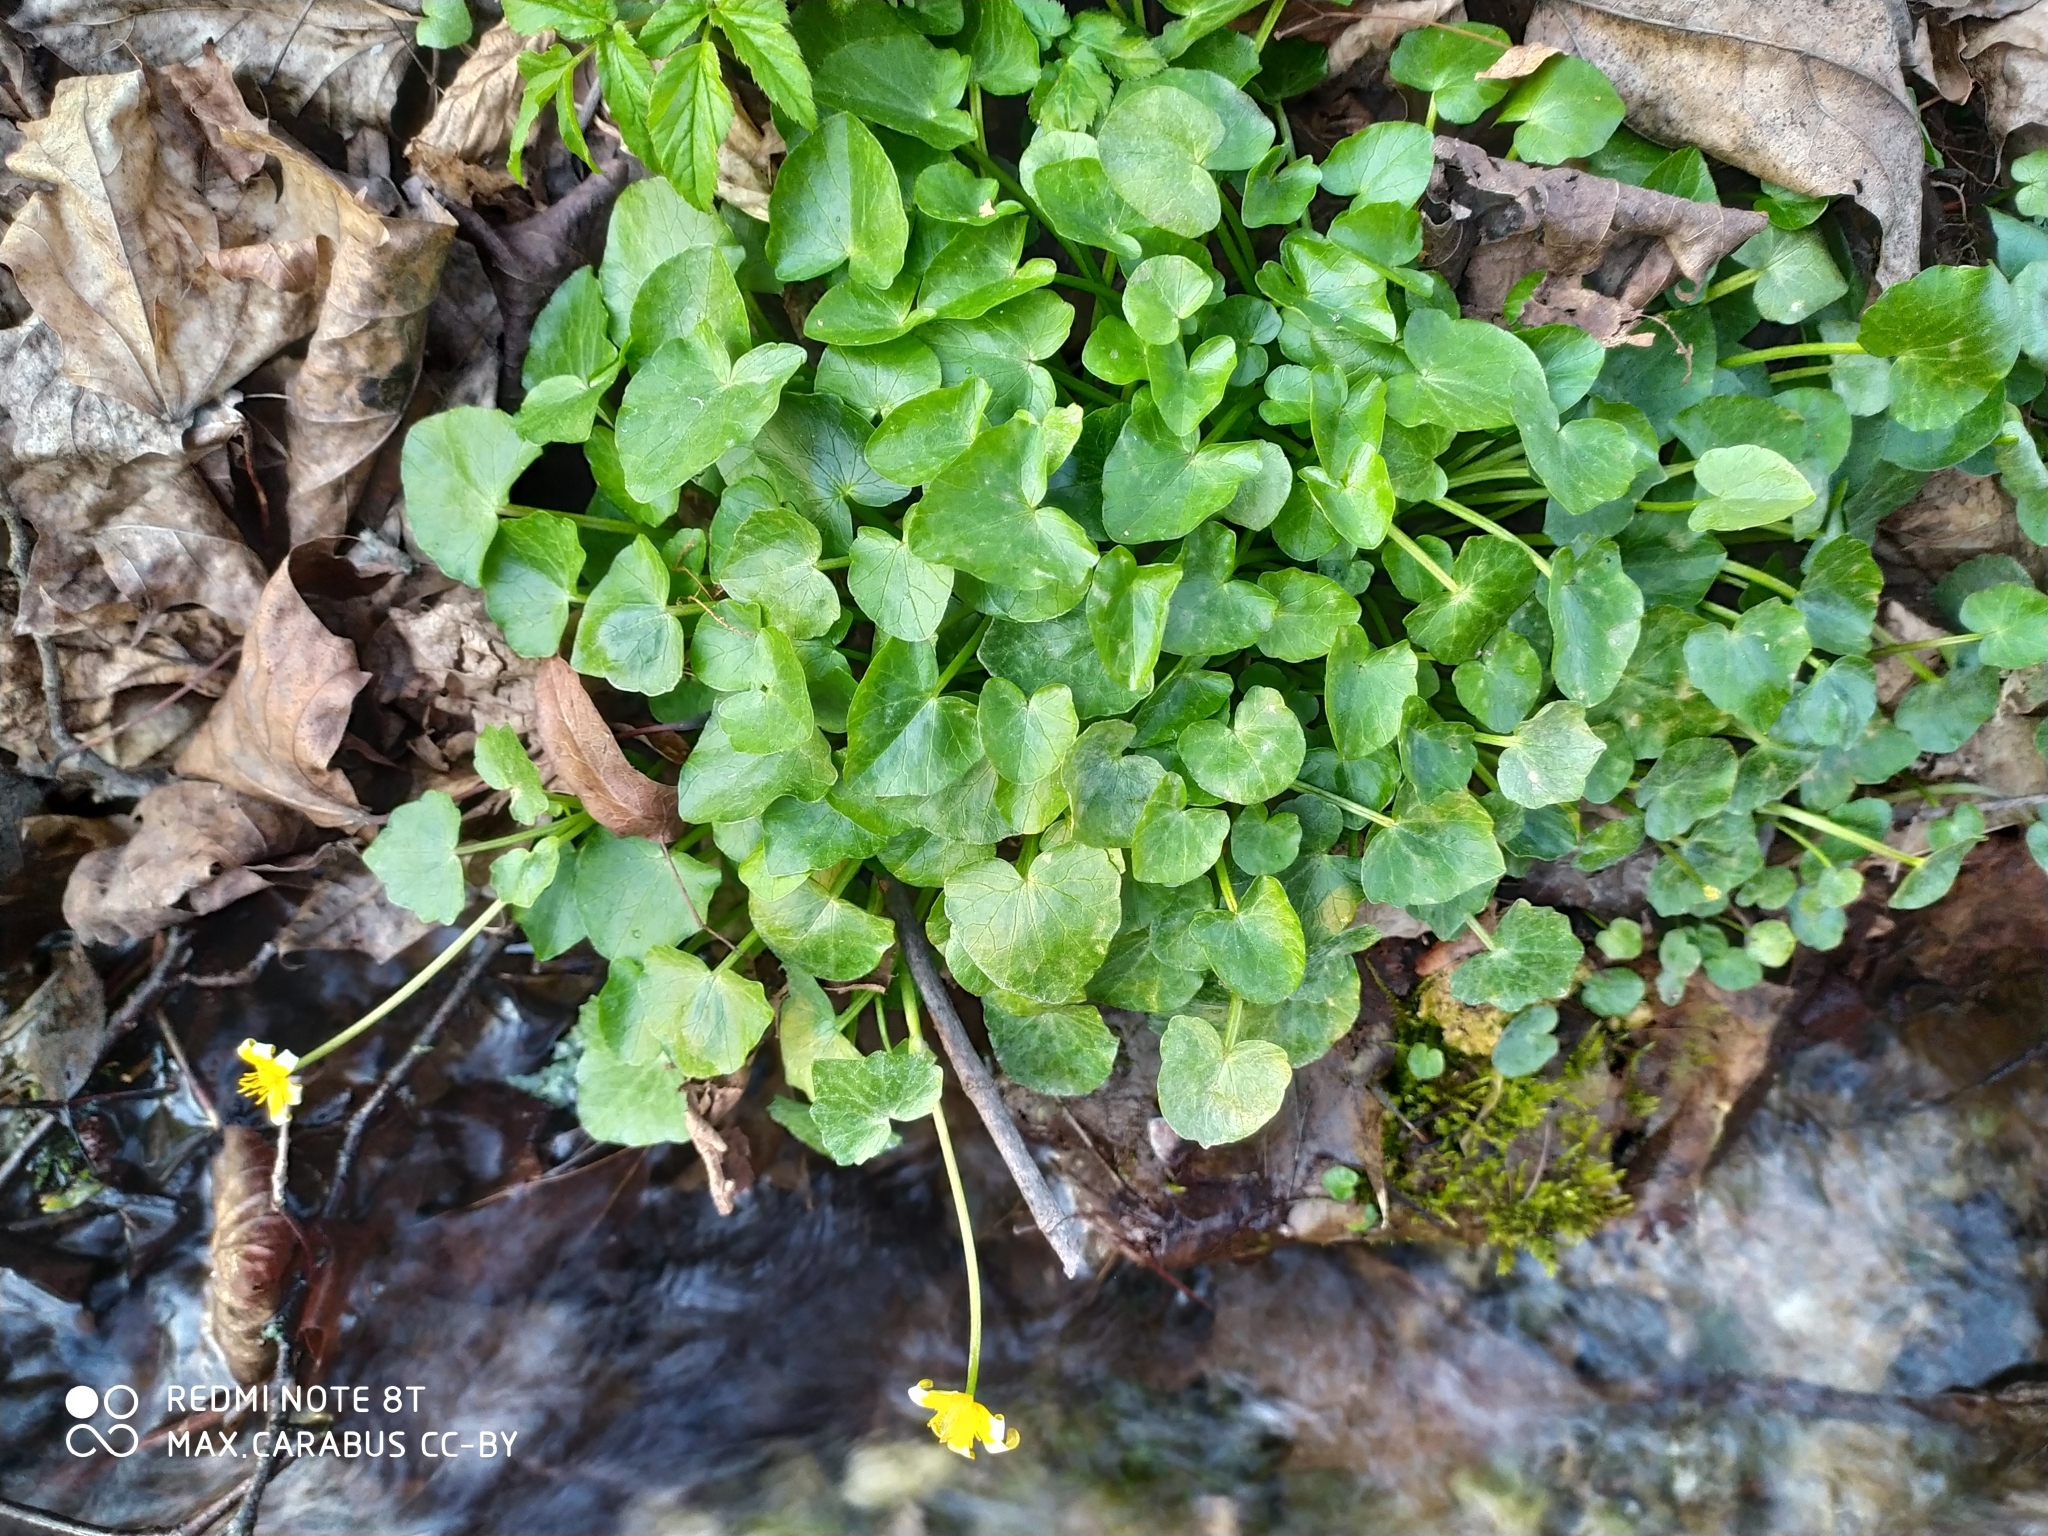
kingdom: Plantae
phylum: Tracheophyta
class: Magnoliopsida
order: Ranunculales
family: Ranunculaceae
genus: Ficaria
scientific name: Ficaria verna
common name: Lesser celandine
